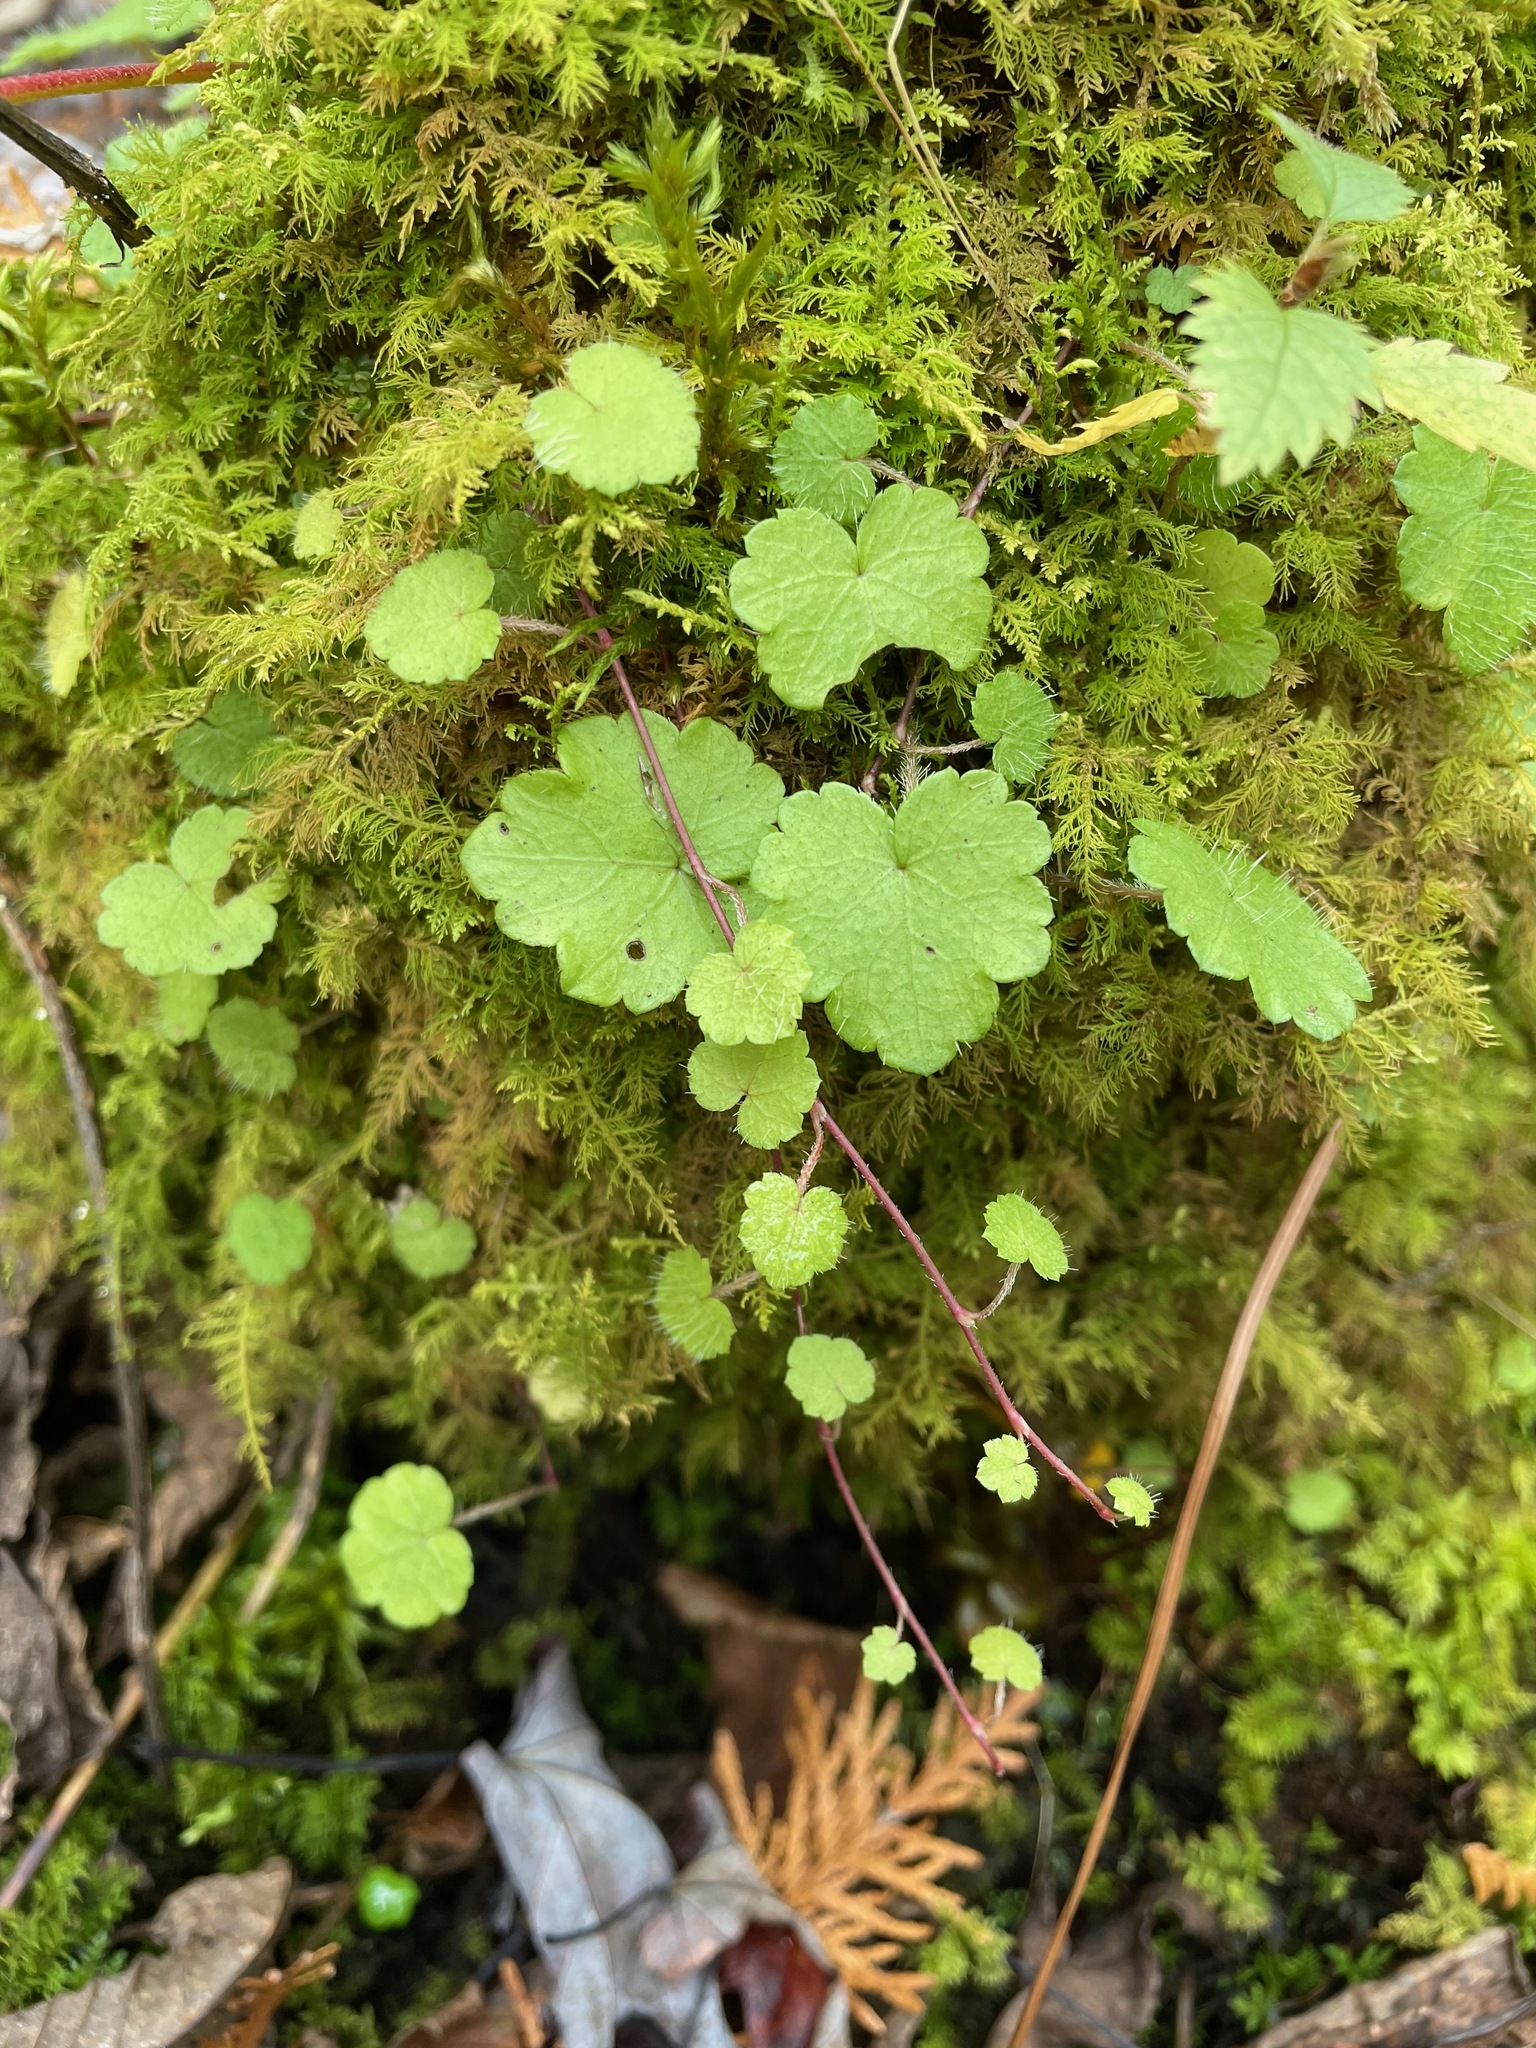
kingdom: Plantae
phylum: Tracheophyta
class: Magnoliopsida
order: Saxifragales
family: Saxifragaceae
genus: Mitella
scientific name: Mitella nuda
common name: Bare-stemmed bishop's-cap
